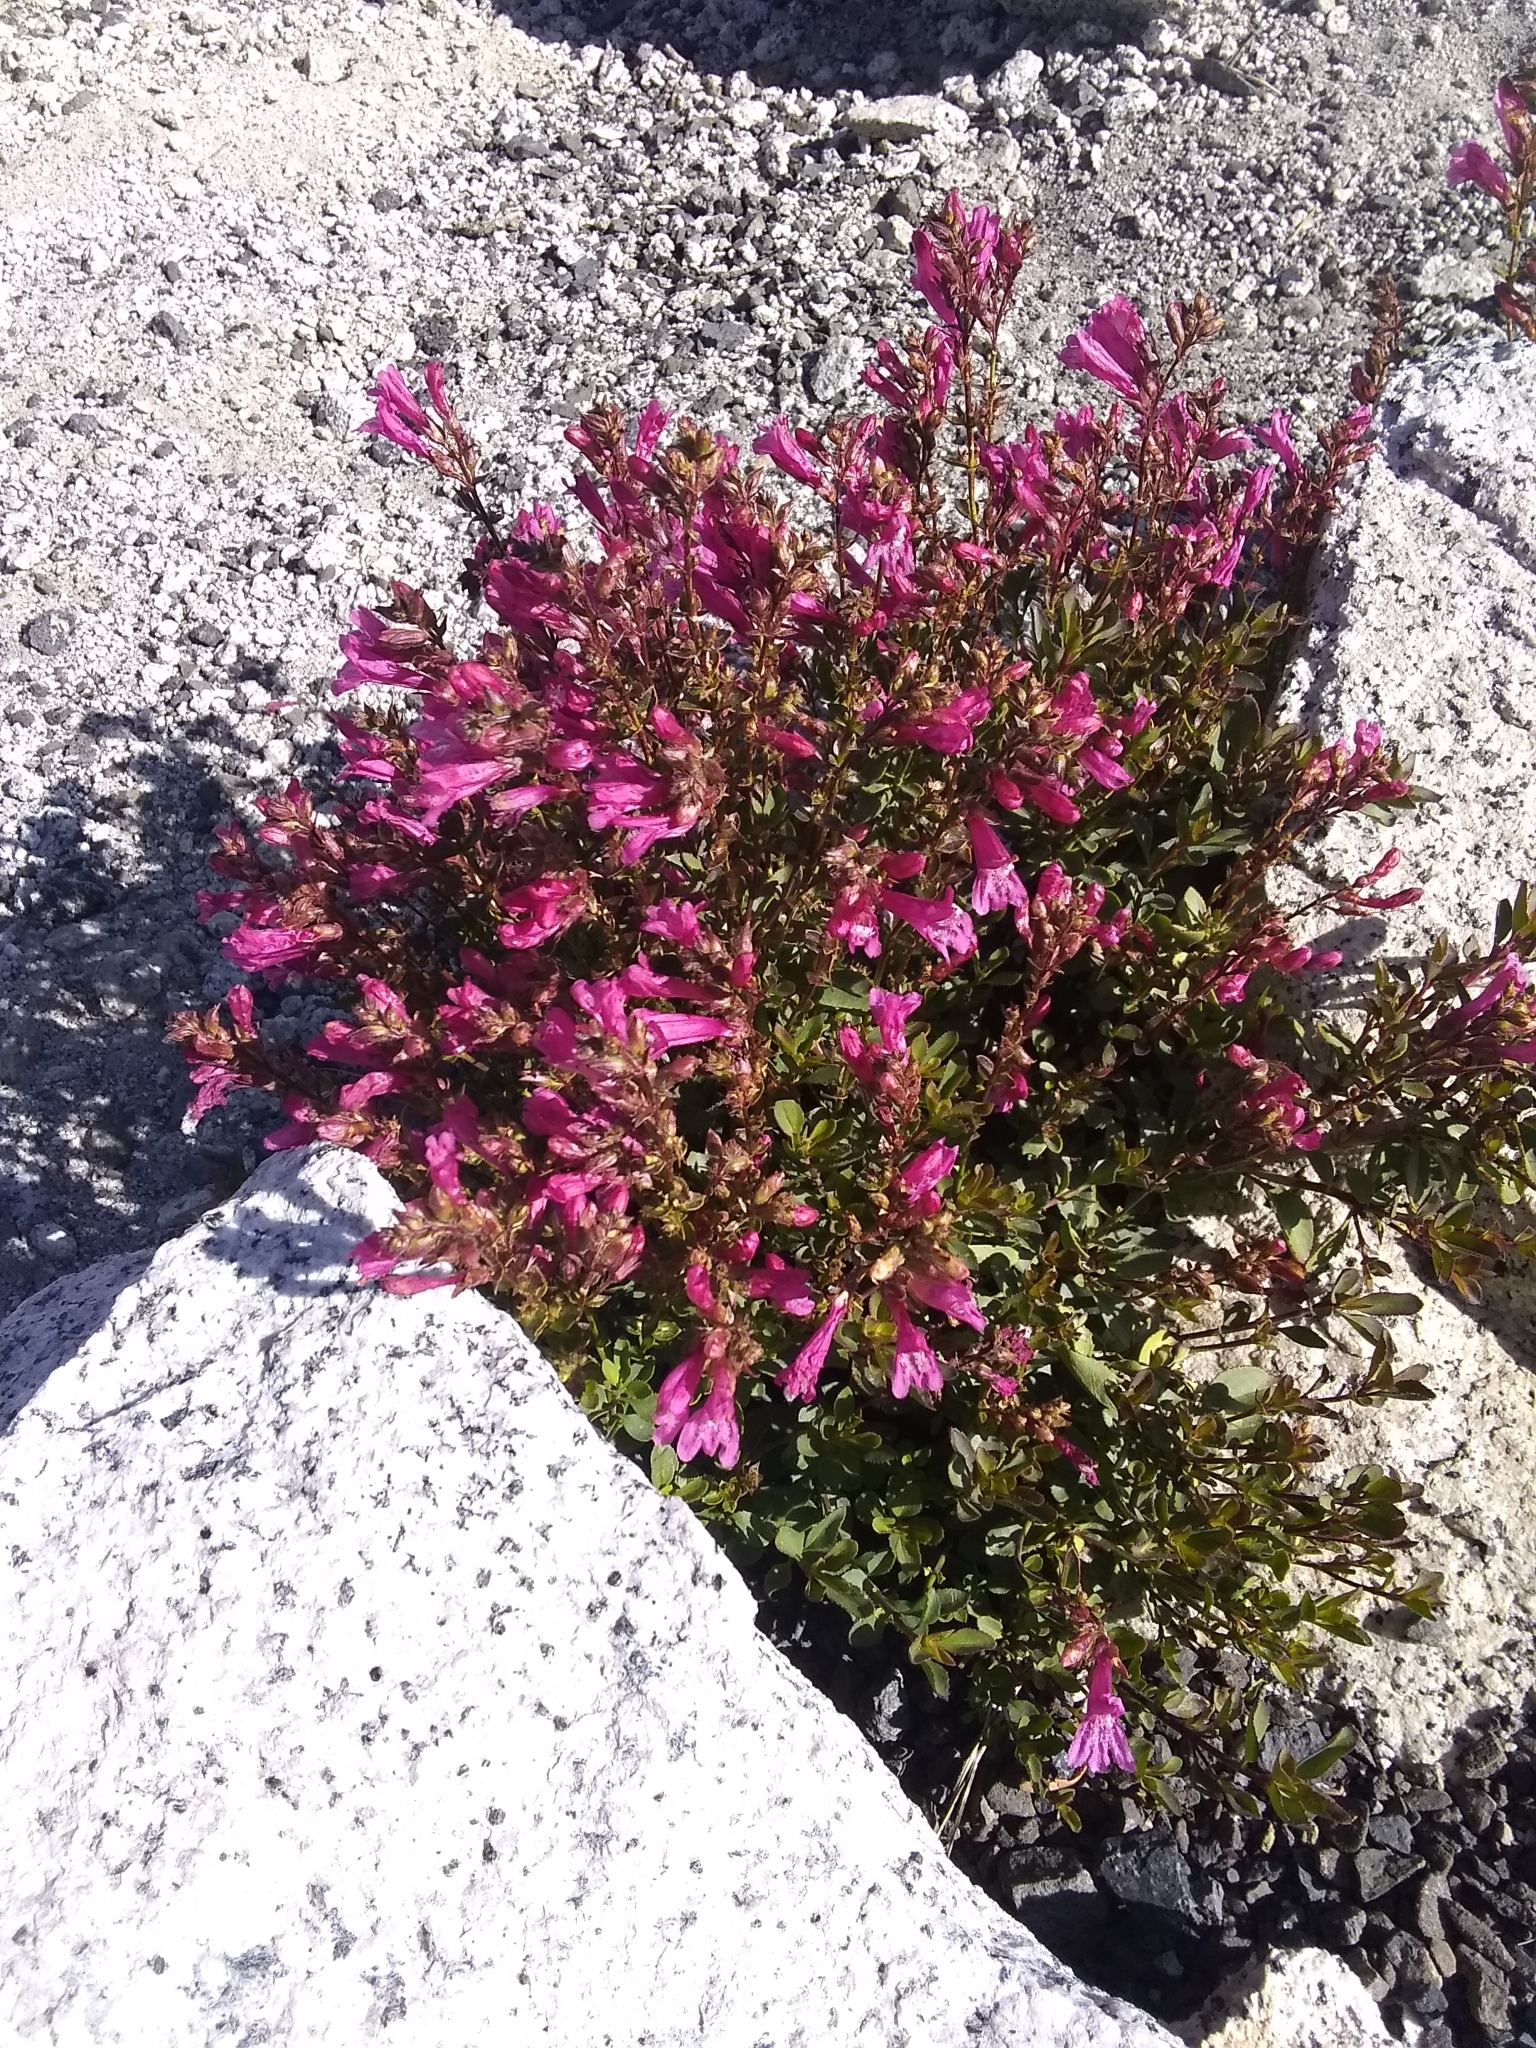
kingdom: Plantae
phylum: Tracheophyta
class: Magnoliopsida
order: Lamiales
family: Plantaginaceae
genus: Penstemon
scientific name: Penstemon newberryi
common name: Mountain-pride
